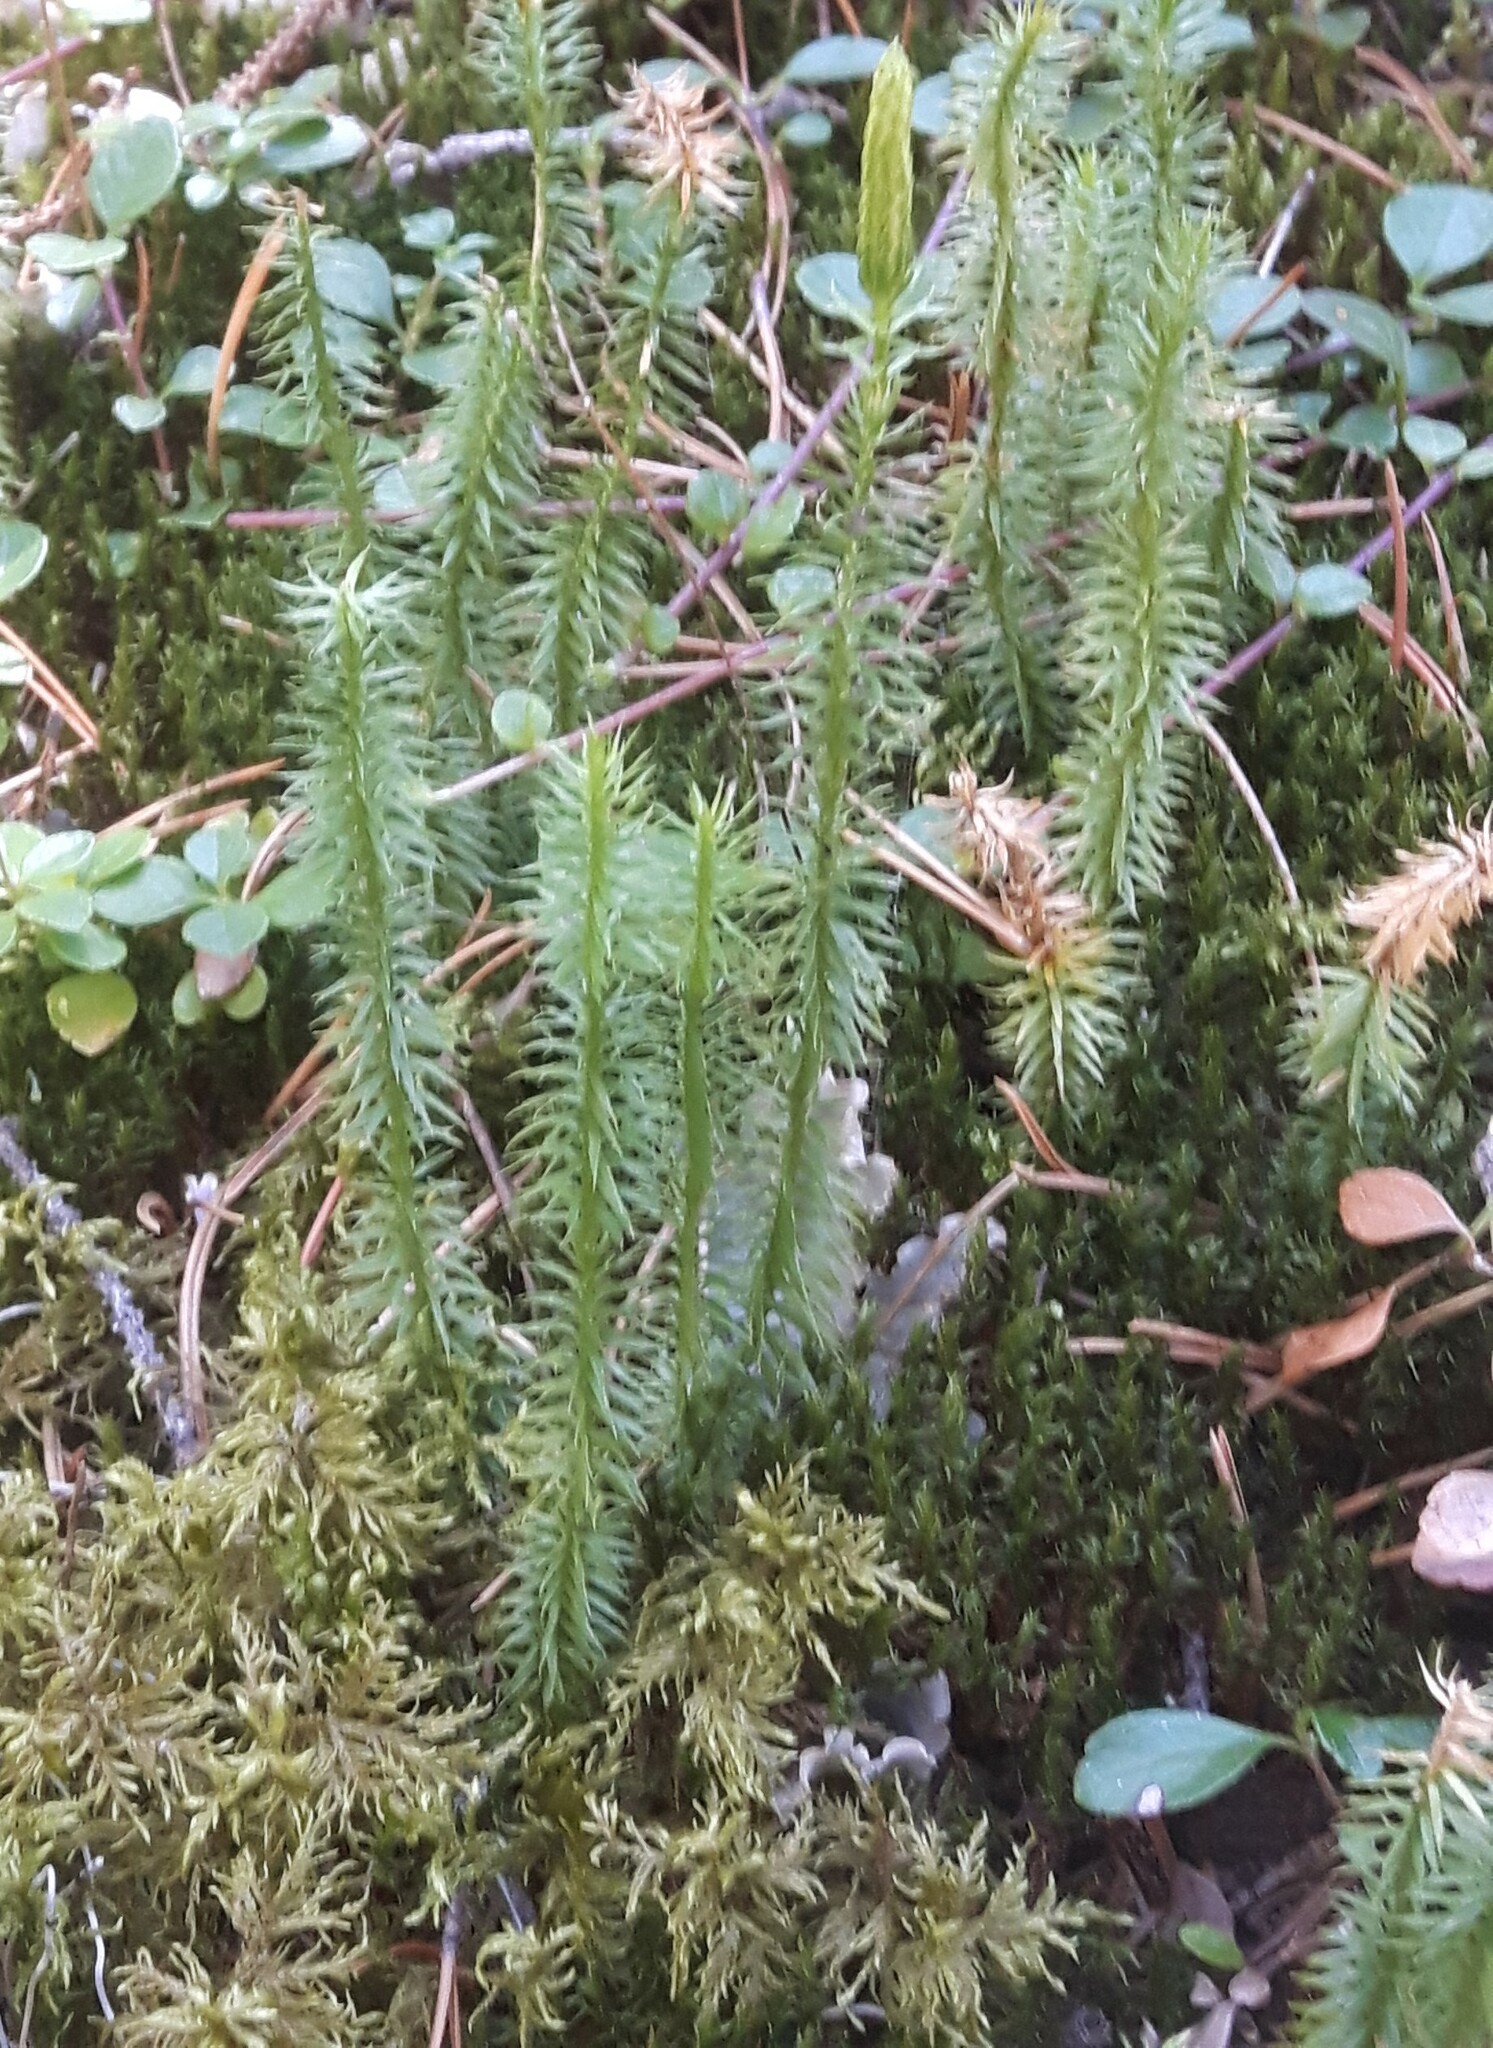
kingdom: Plantae
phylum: Tracheophyta
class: Lycopodiopsida
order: Lycopodiales
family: Lycopodiaceae
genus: Spinulum
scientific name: Spinulum annotinum
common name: Interrupted club-moss
